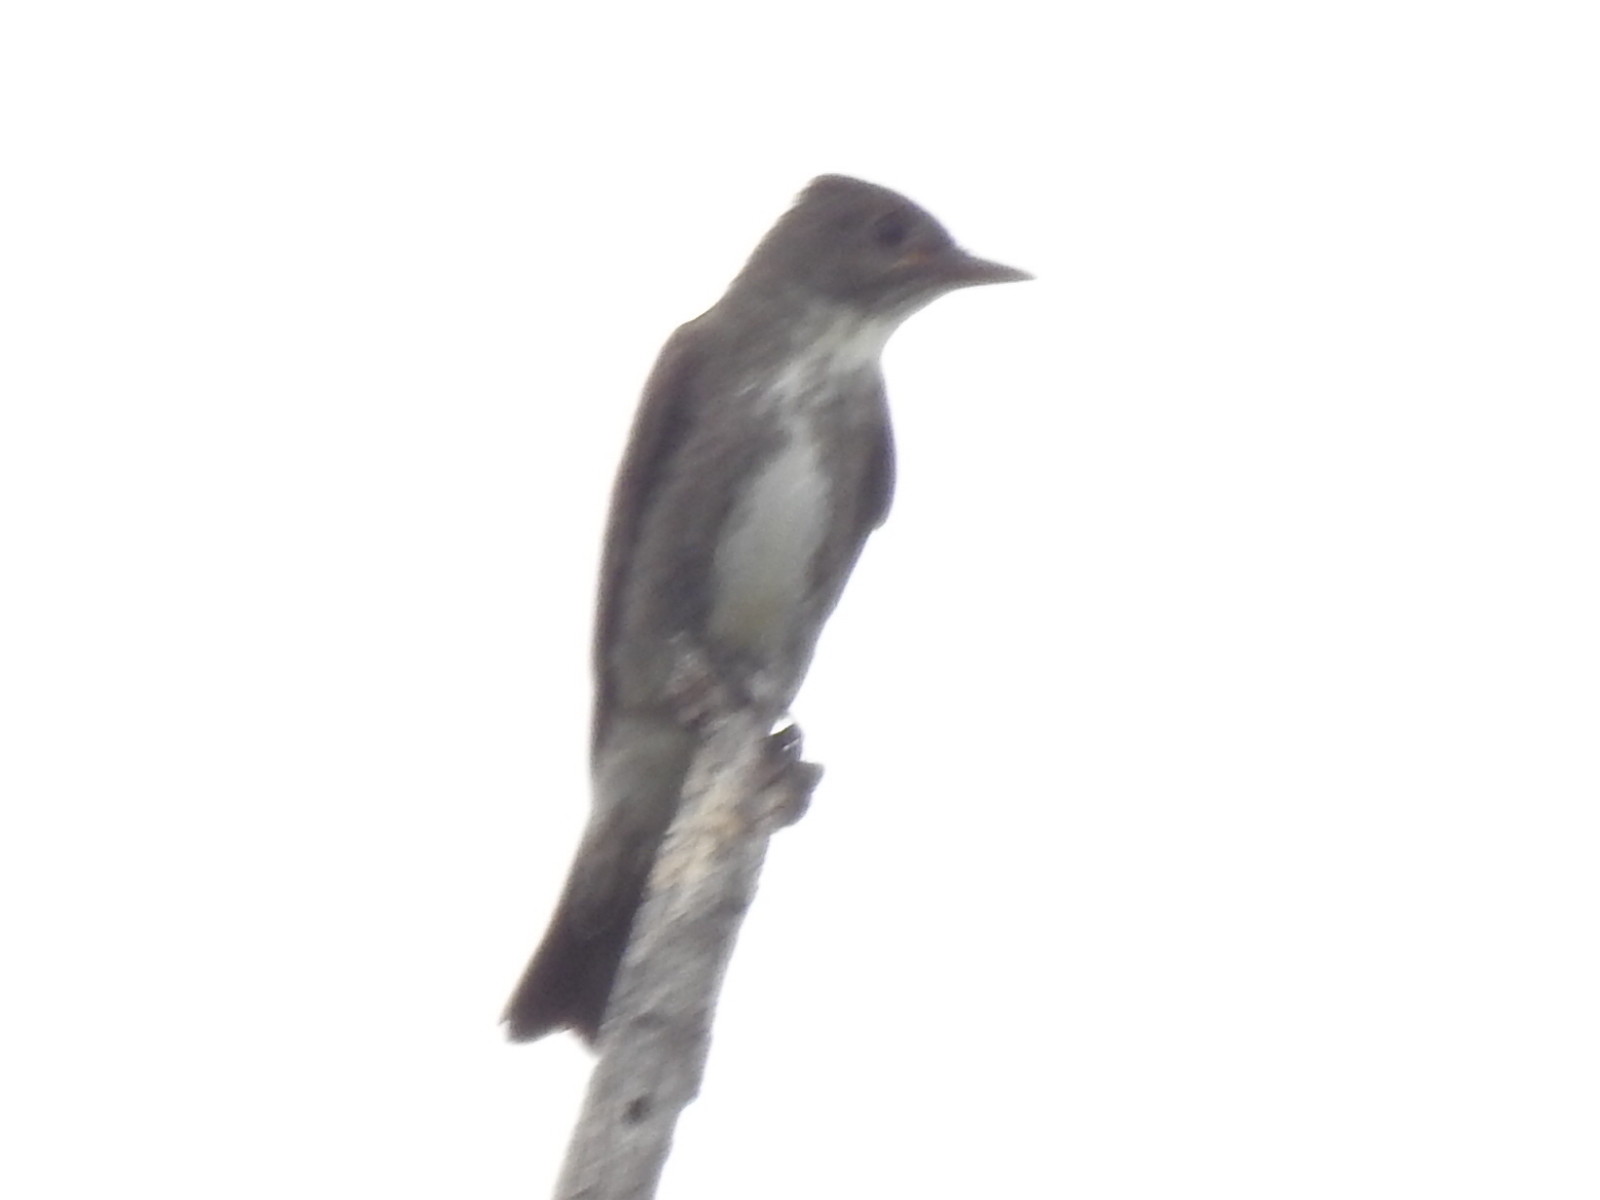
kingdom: Animalia
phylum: Chordata
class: Aves
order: Passeriformes
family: Tyrannidae
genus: Contopus
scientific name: Contopus cooperi
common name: Olive-sided flycatcher
